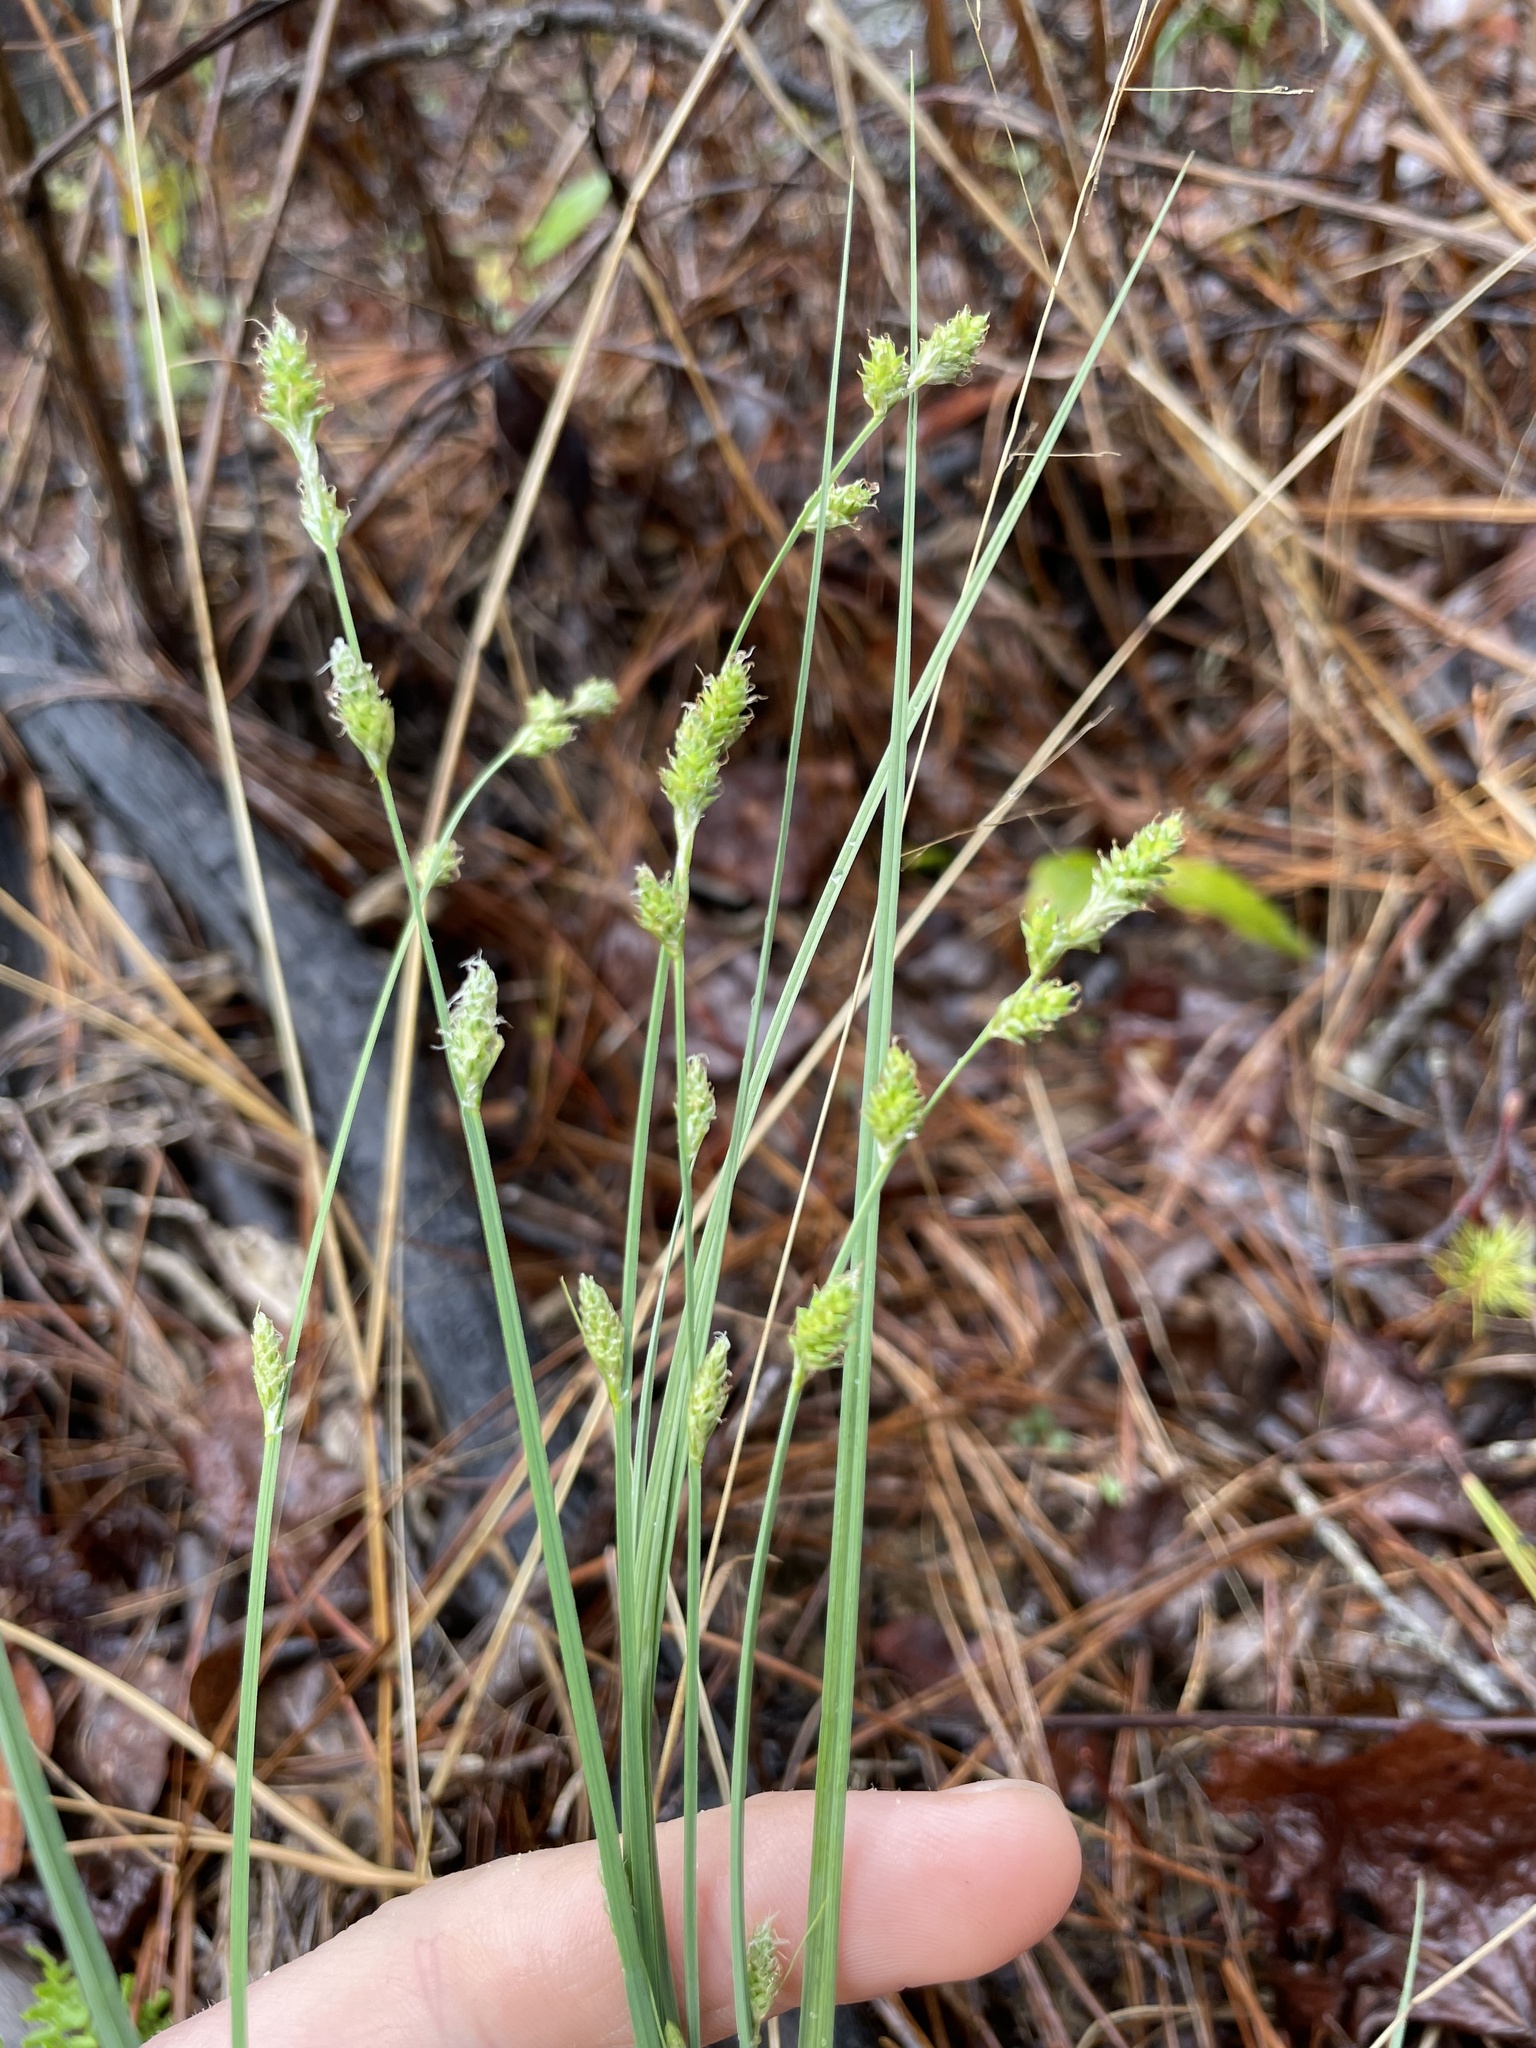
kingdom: Plantae
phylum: Tracheophyta
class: Liliopsida
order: Poales
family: Cyperaceae
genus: Carex
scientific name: Carex canescens
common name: White sedge
